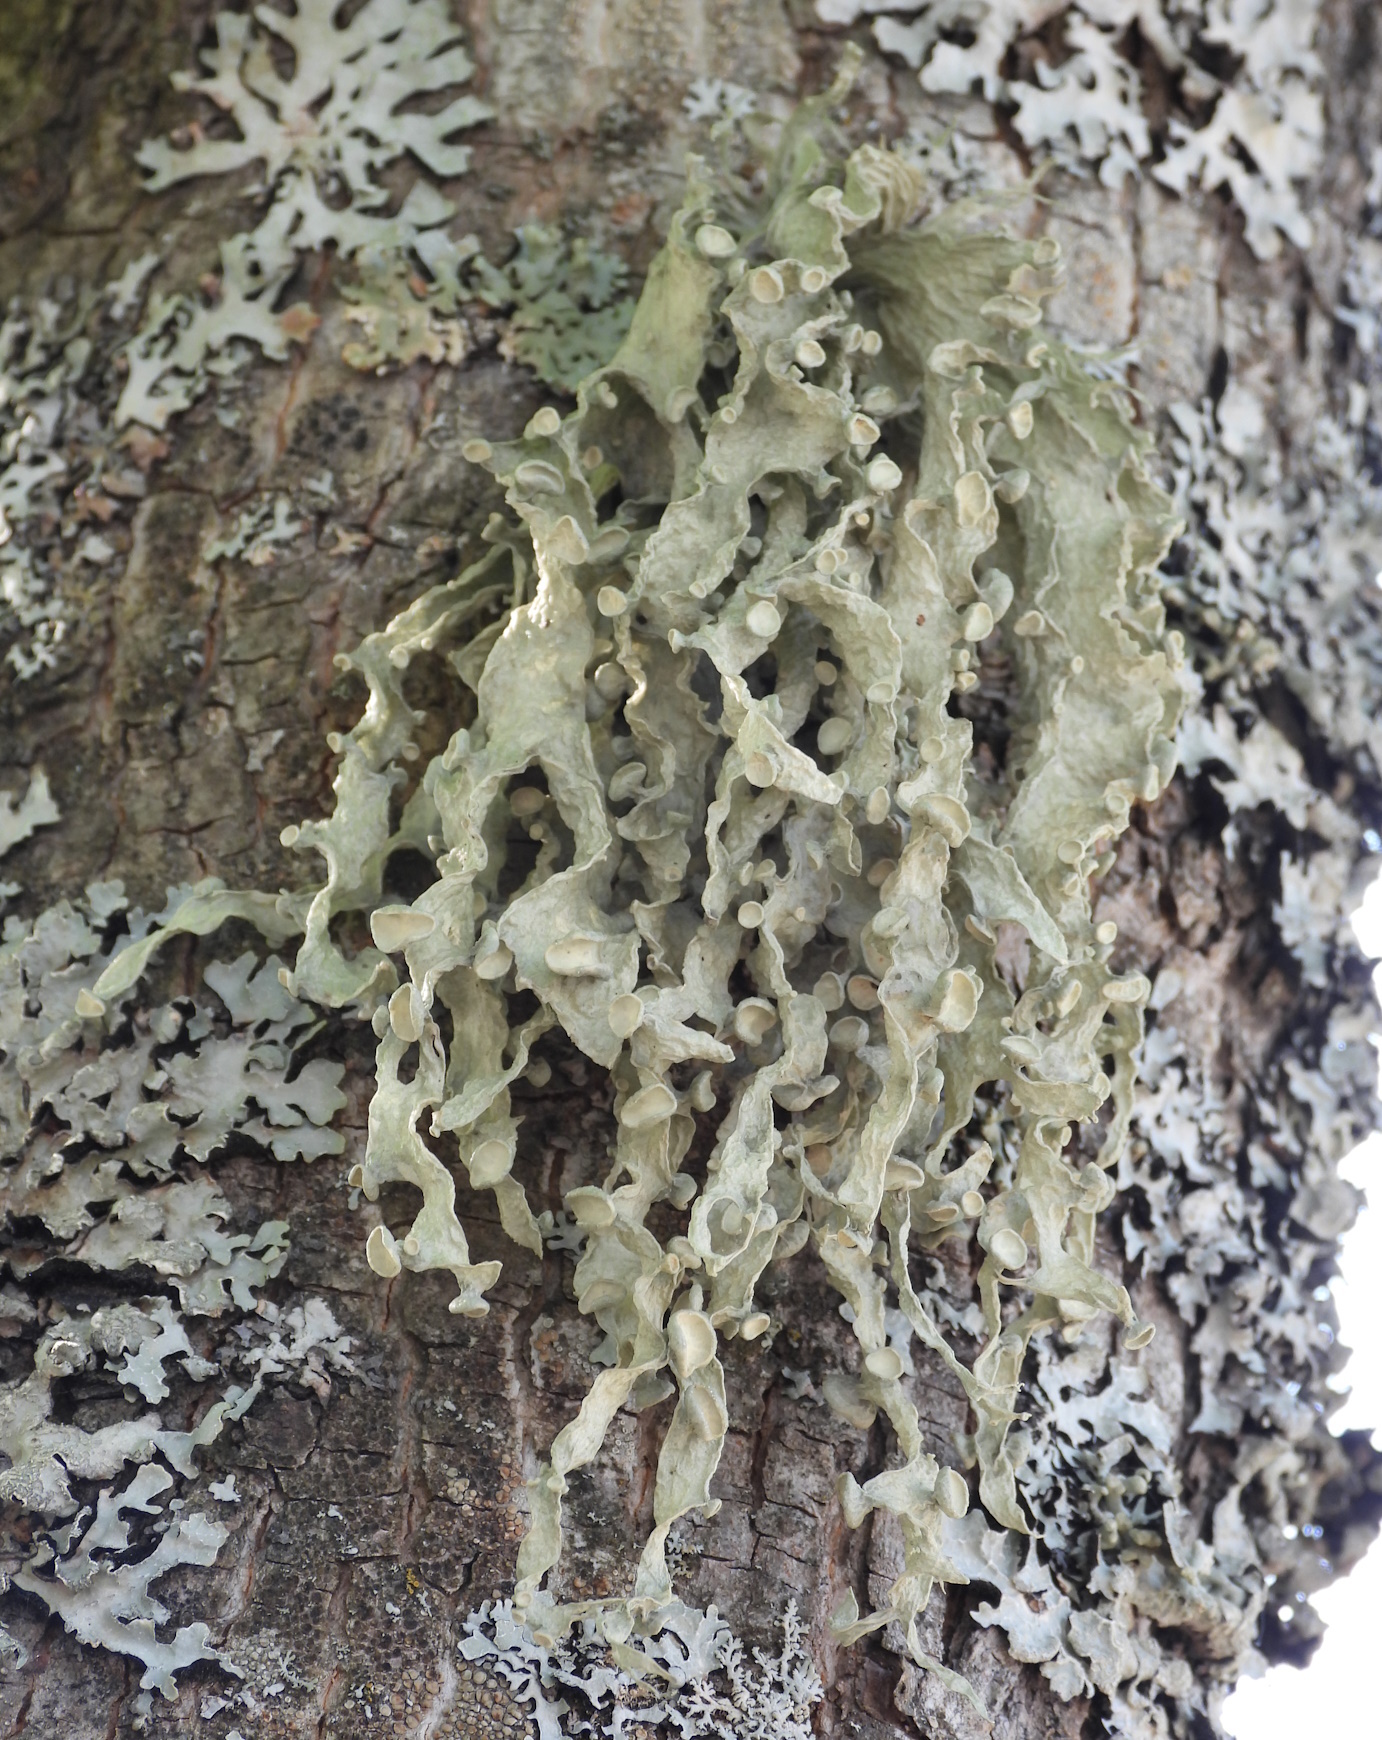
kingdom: Fungi
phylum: Ascomycota
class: Lecanoromycetes
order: Lecanorales
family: Ramalinaceae
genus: Ramalina
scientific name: Ramalina fraxinea
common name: Cartilage lichen
